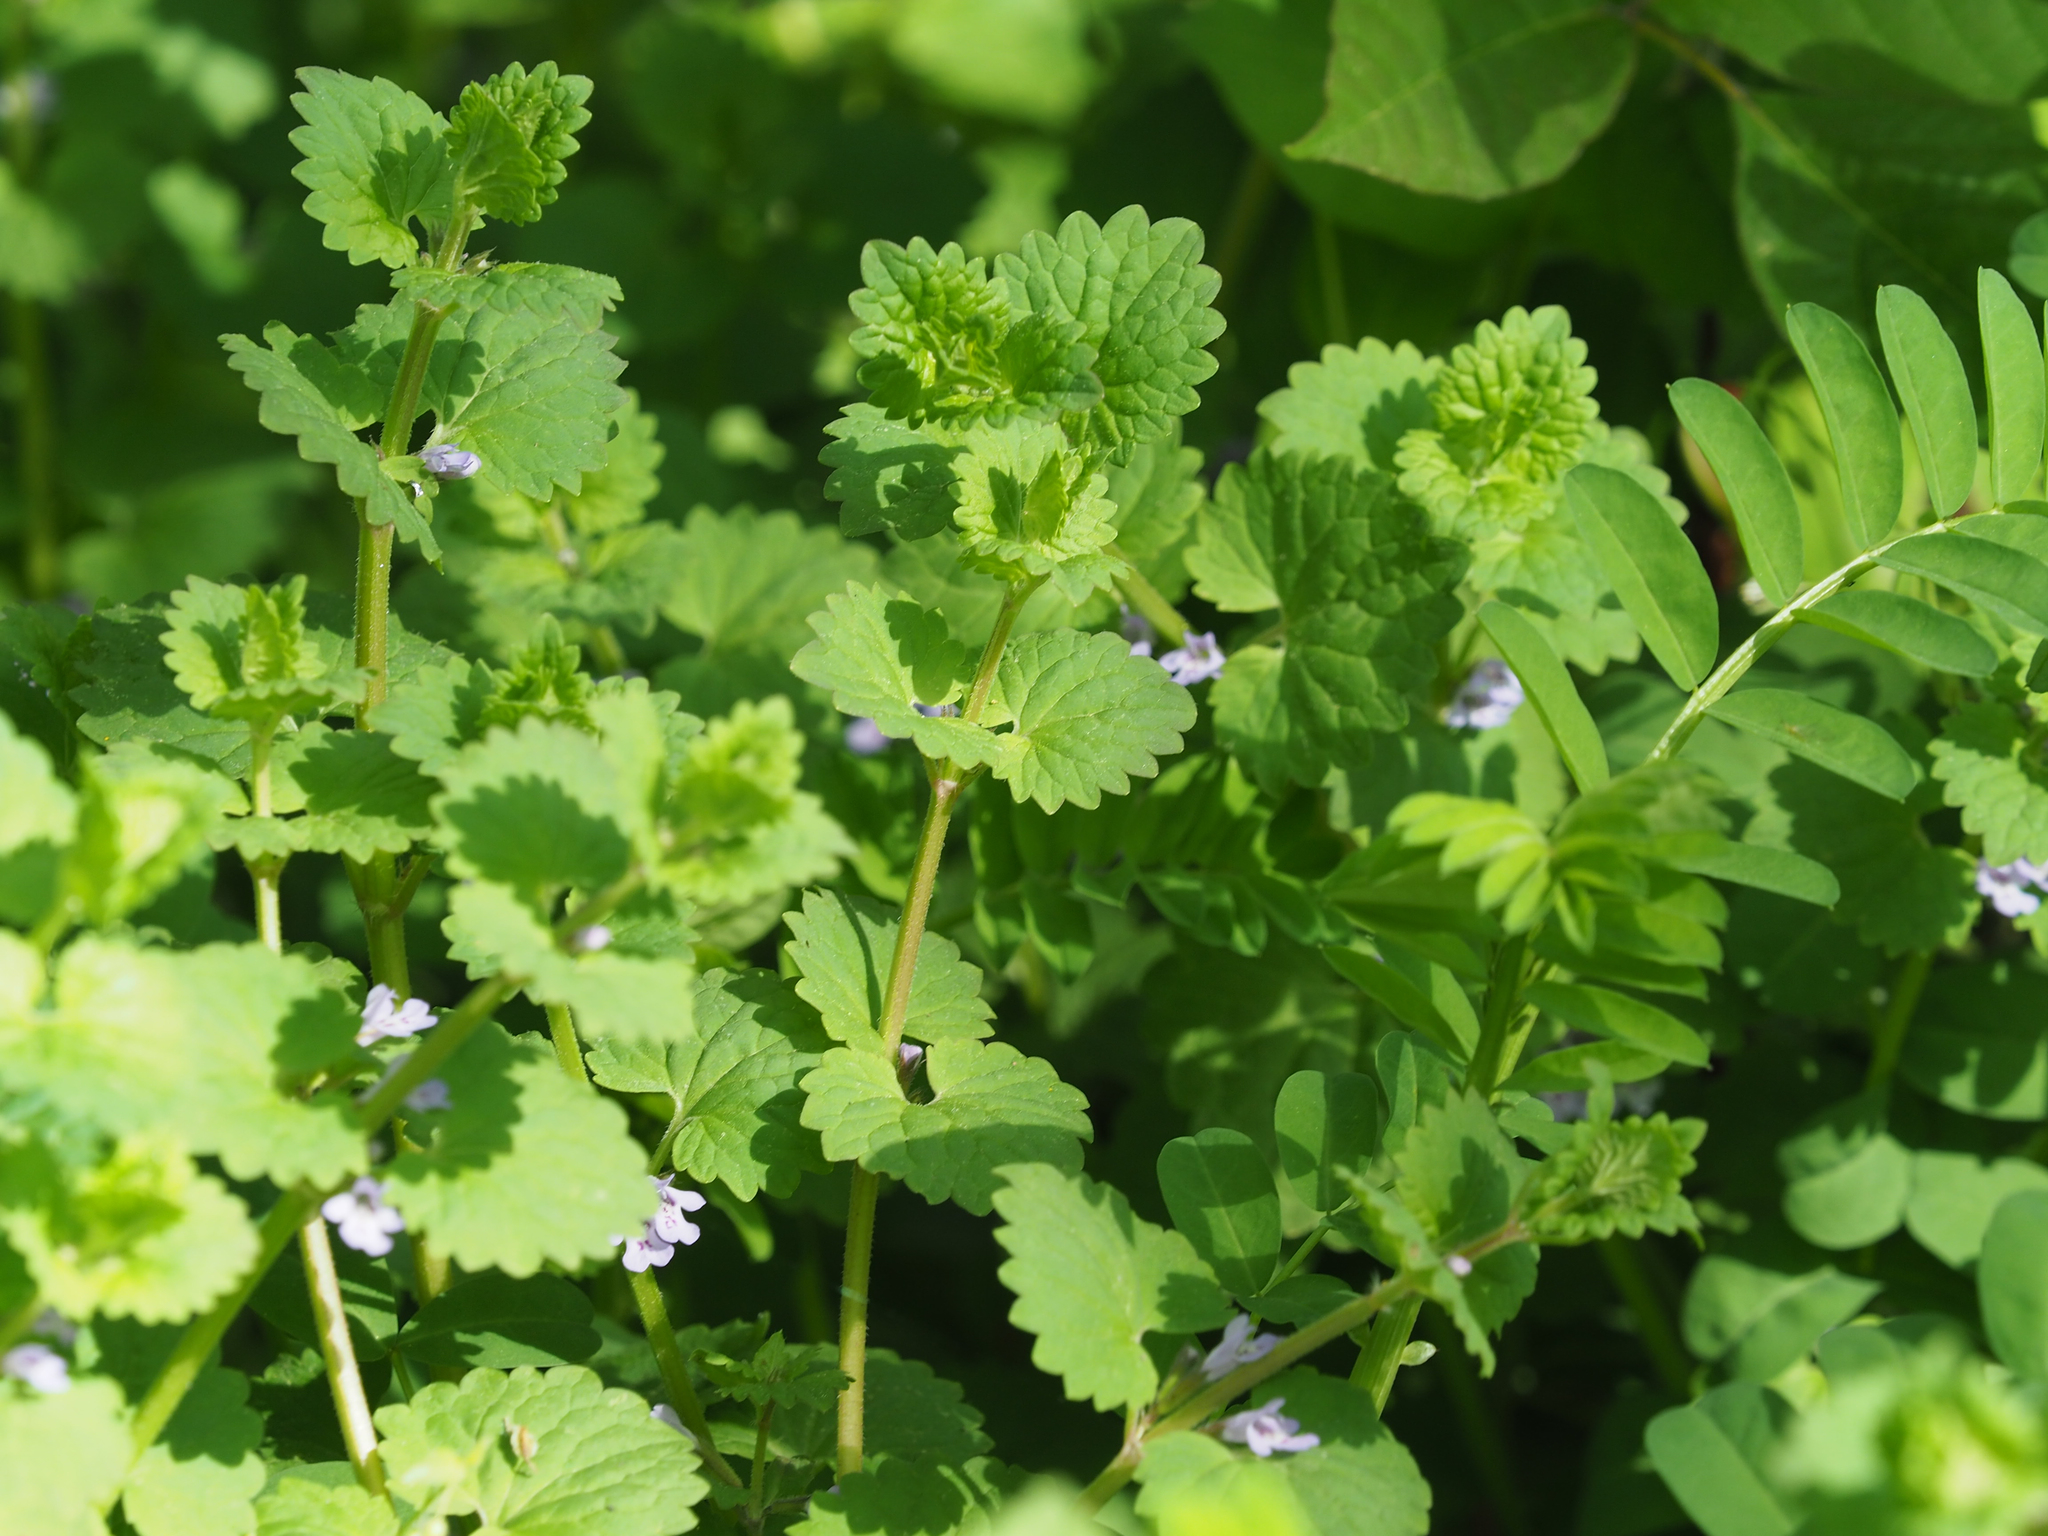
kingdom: Plantae
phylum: Tracheophyta
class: Magnoliopsida
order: Lamiales
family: Lamiaceae
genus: Glechoma
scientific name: Glechoma hederacea
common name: Ground ivy
